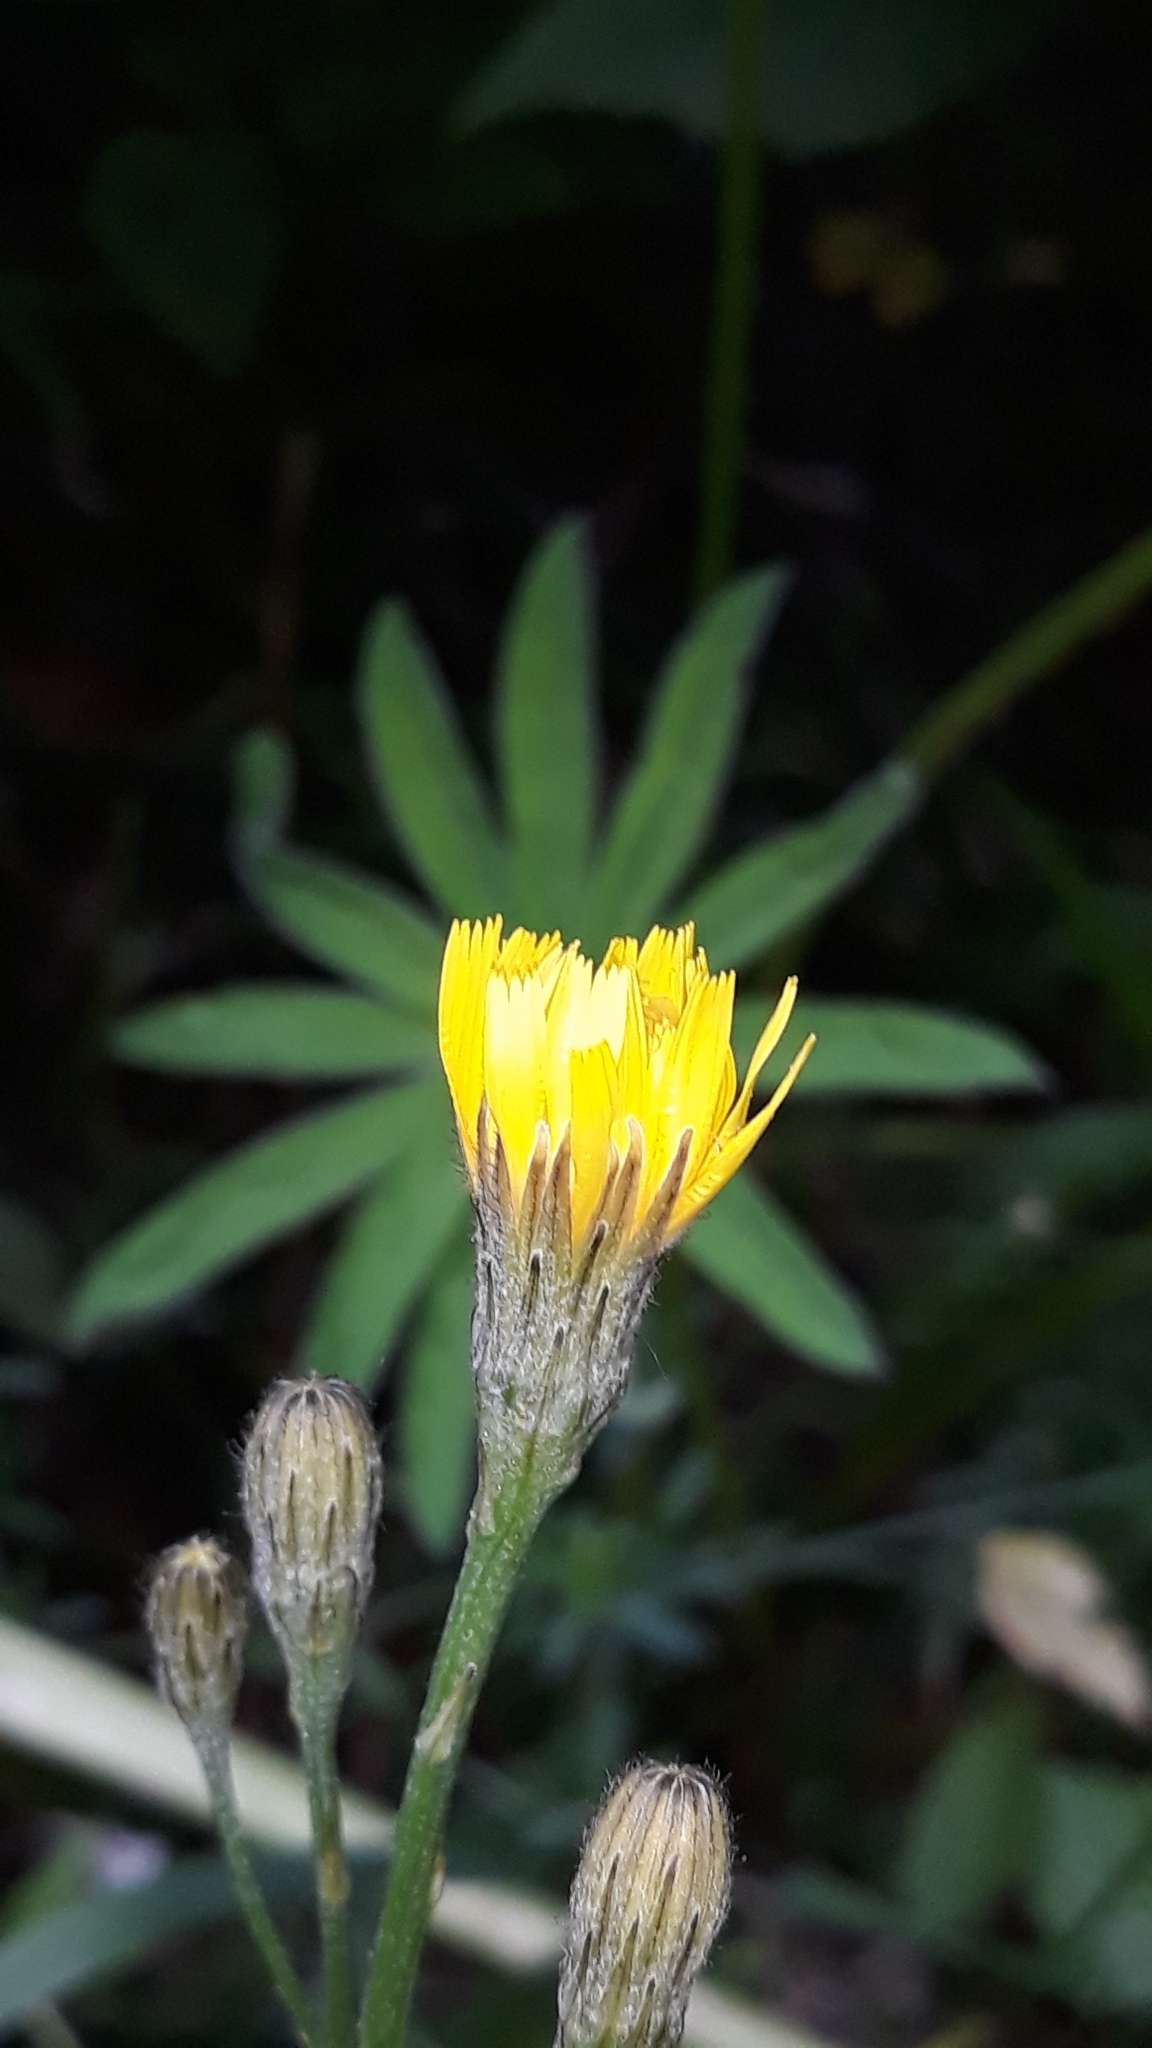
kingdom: Plantae
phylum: Tracheophyta
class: Magnoliopsida
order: Asterales
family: Asteraceae
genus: Scorzoneroides
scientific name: Scorzoneroides autumnalis
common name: Autumn hawkbit
